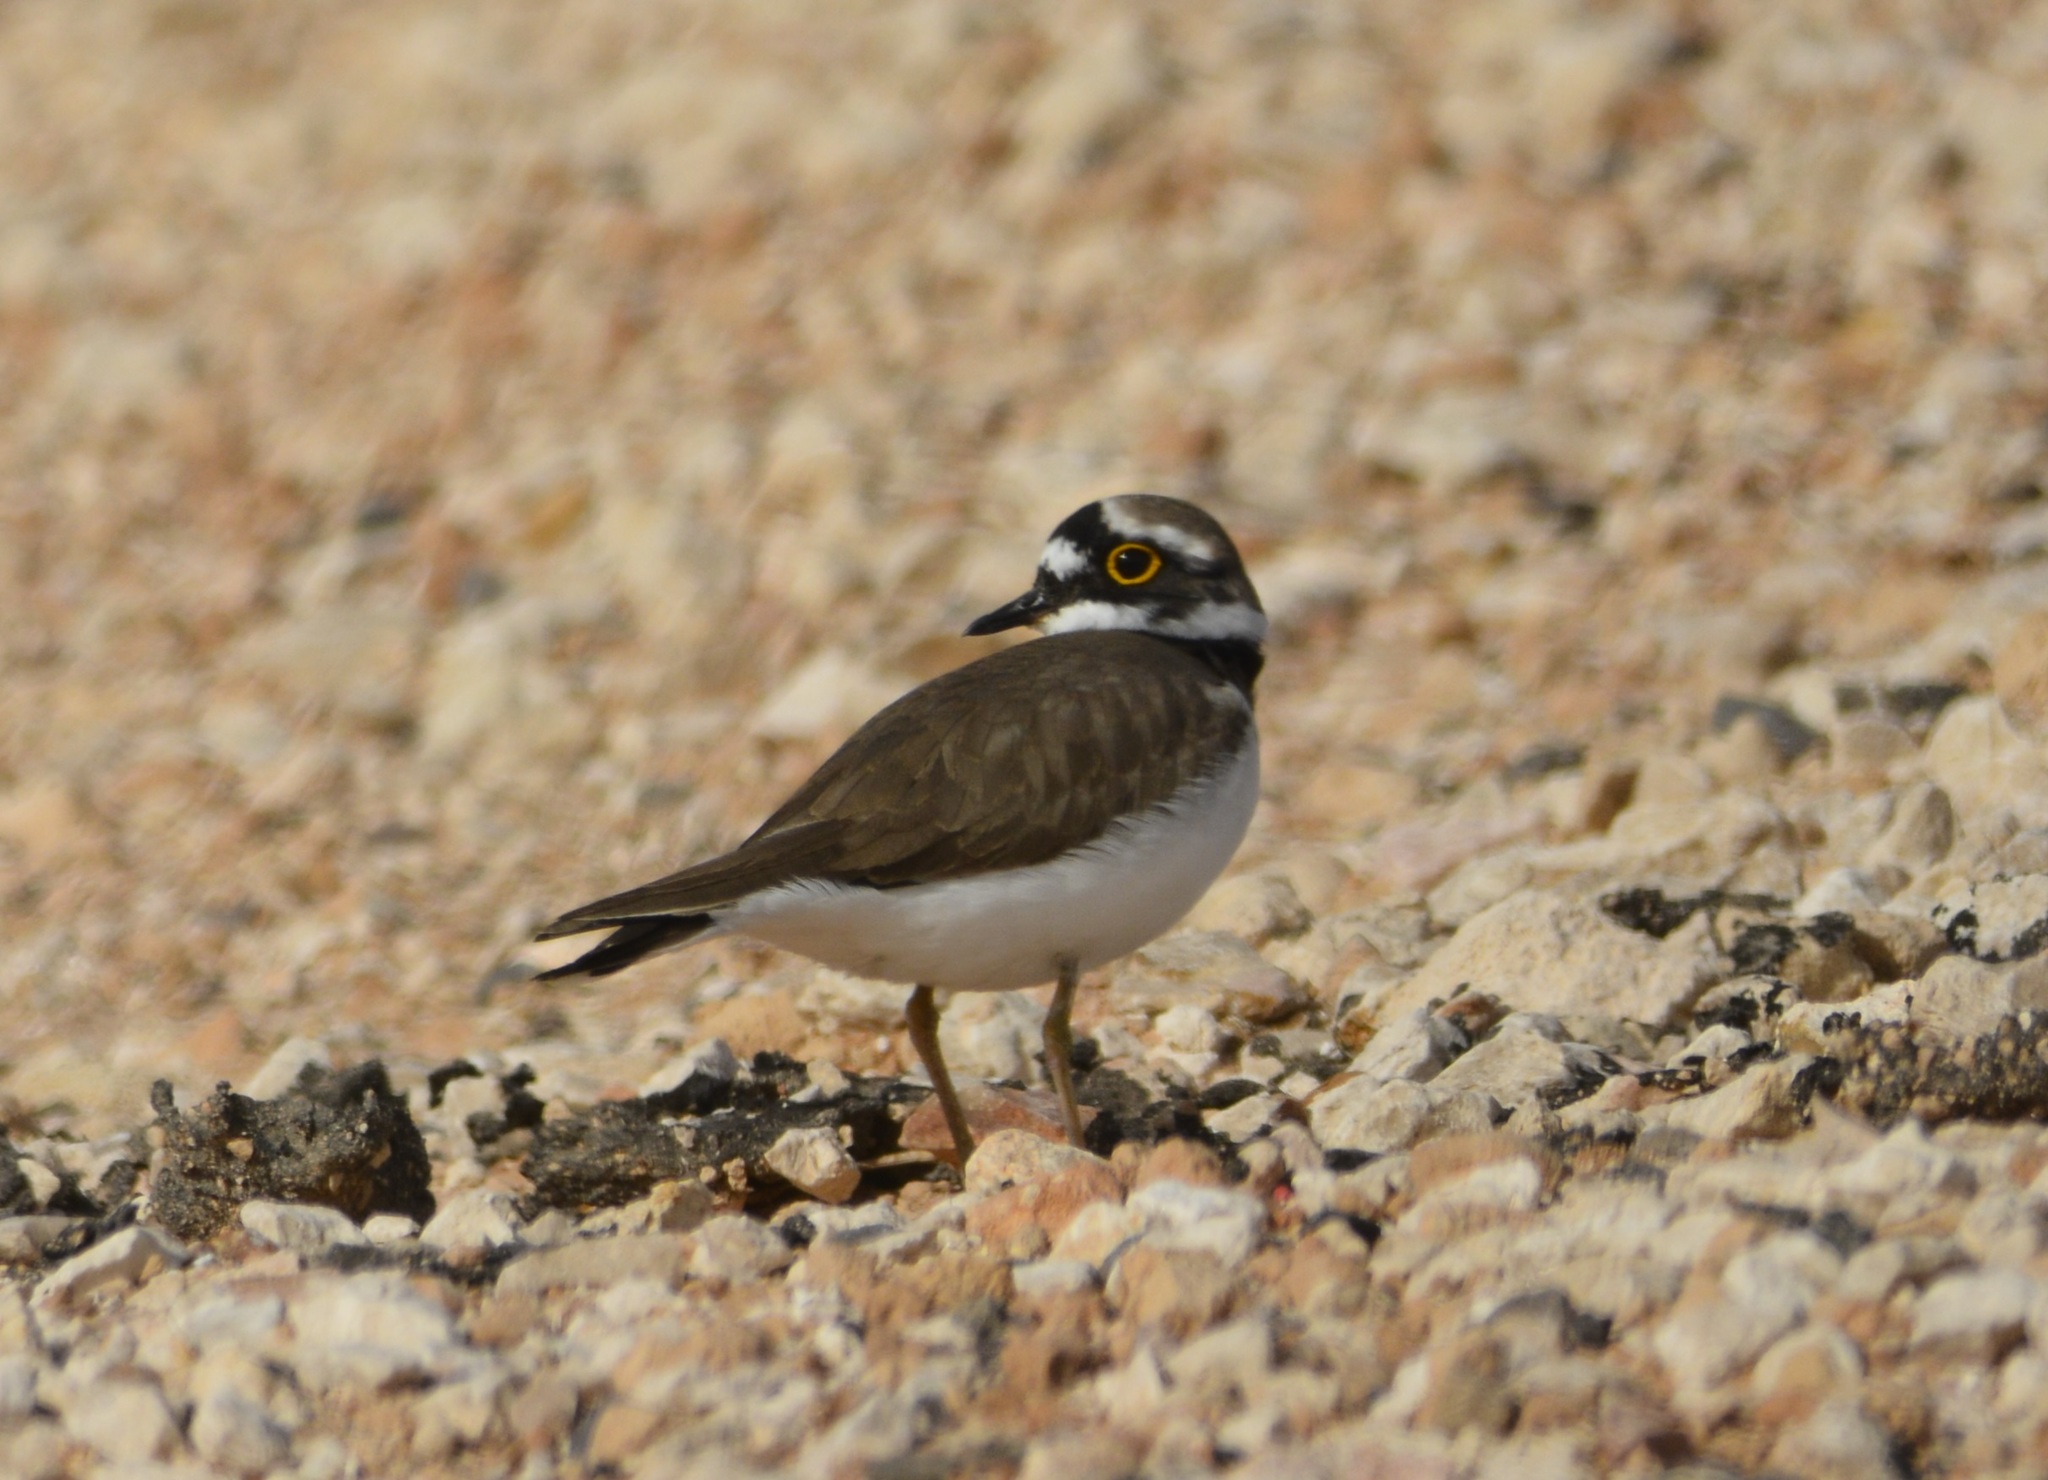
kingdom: Animalia
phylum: Chordata
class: Aves
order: Charadriiformes
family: Charadriidae
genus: Charadrius
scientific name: Charadrius dubius
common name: Little ringed plover
